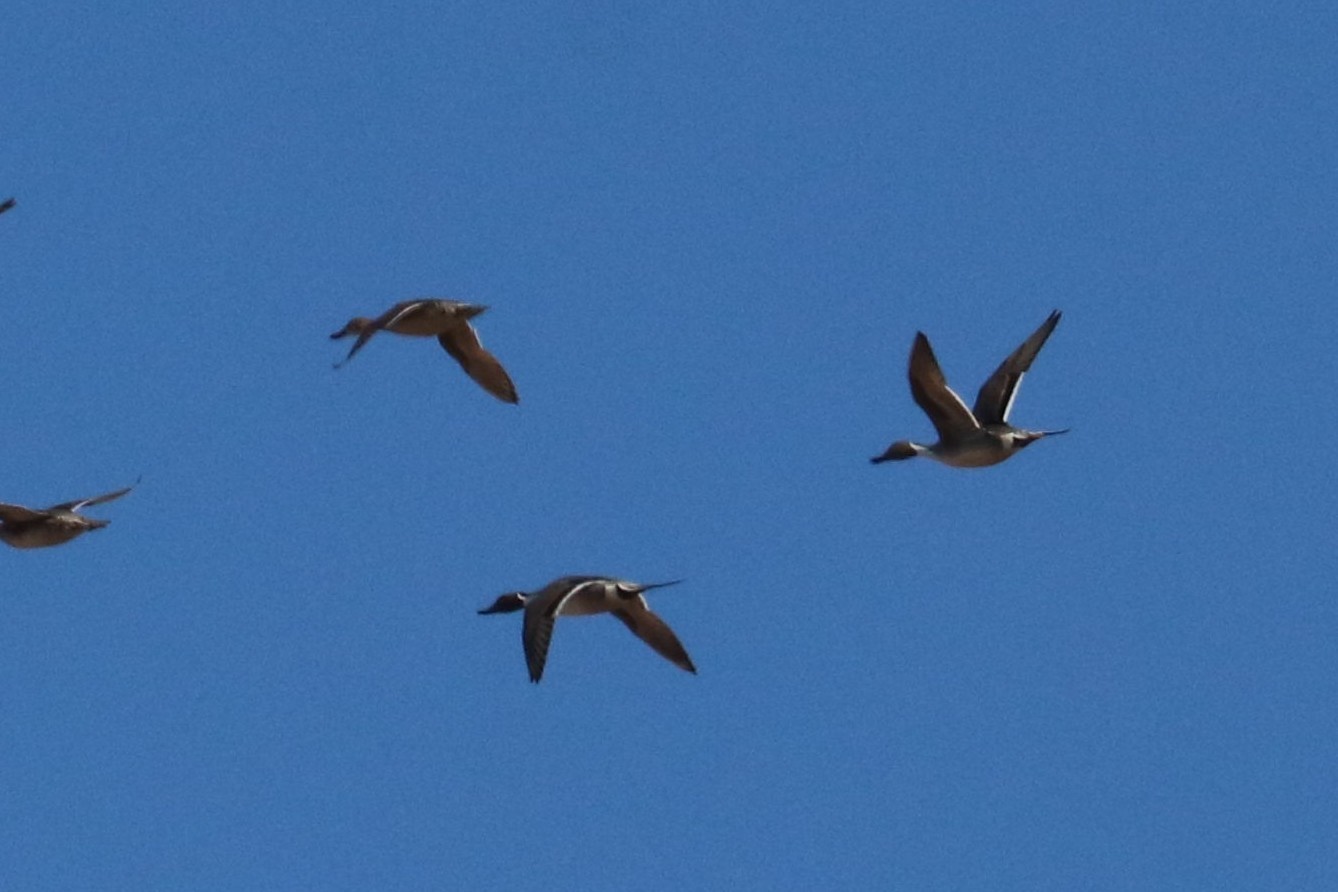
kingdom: Animalia
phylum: Chordata
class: Aves
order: Anseriformes
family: Anatidae
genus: Anas
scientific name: Anas acuta
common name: Northern pintail
